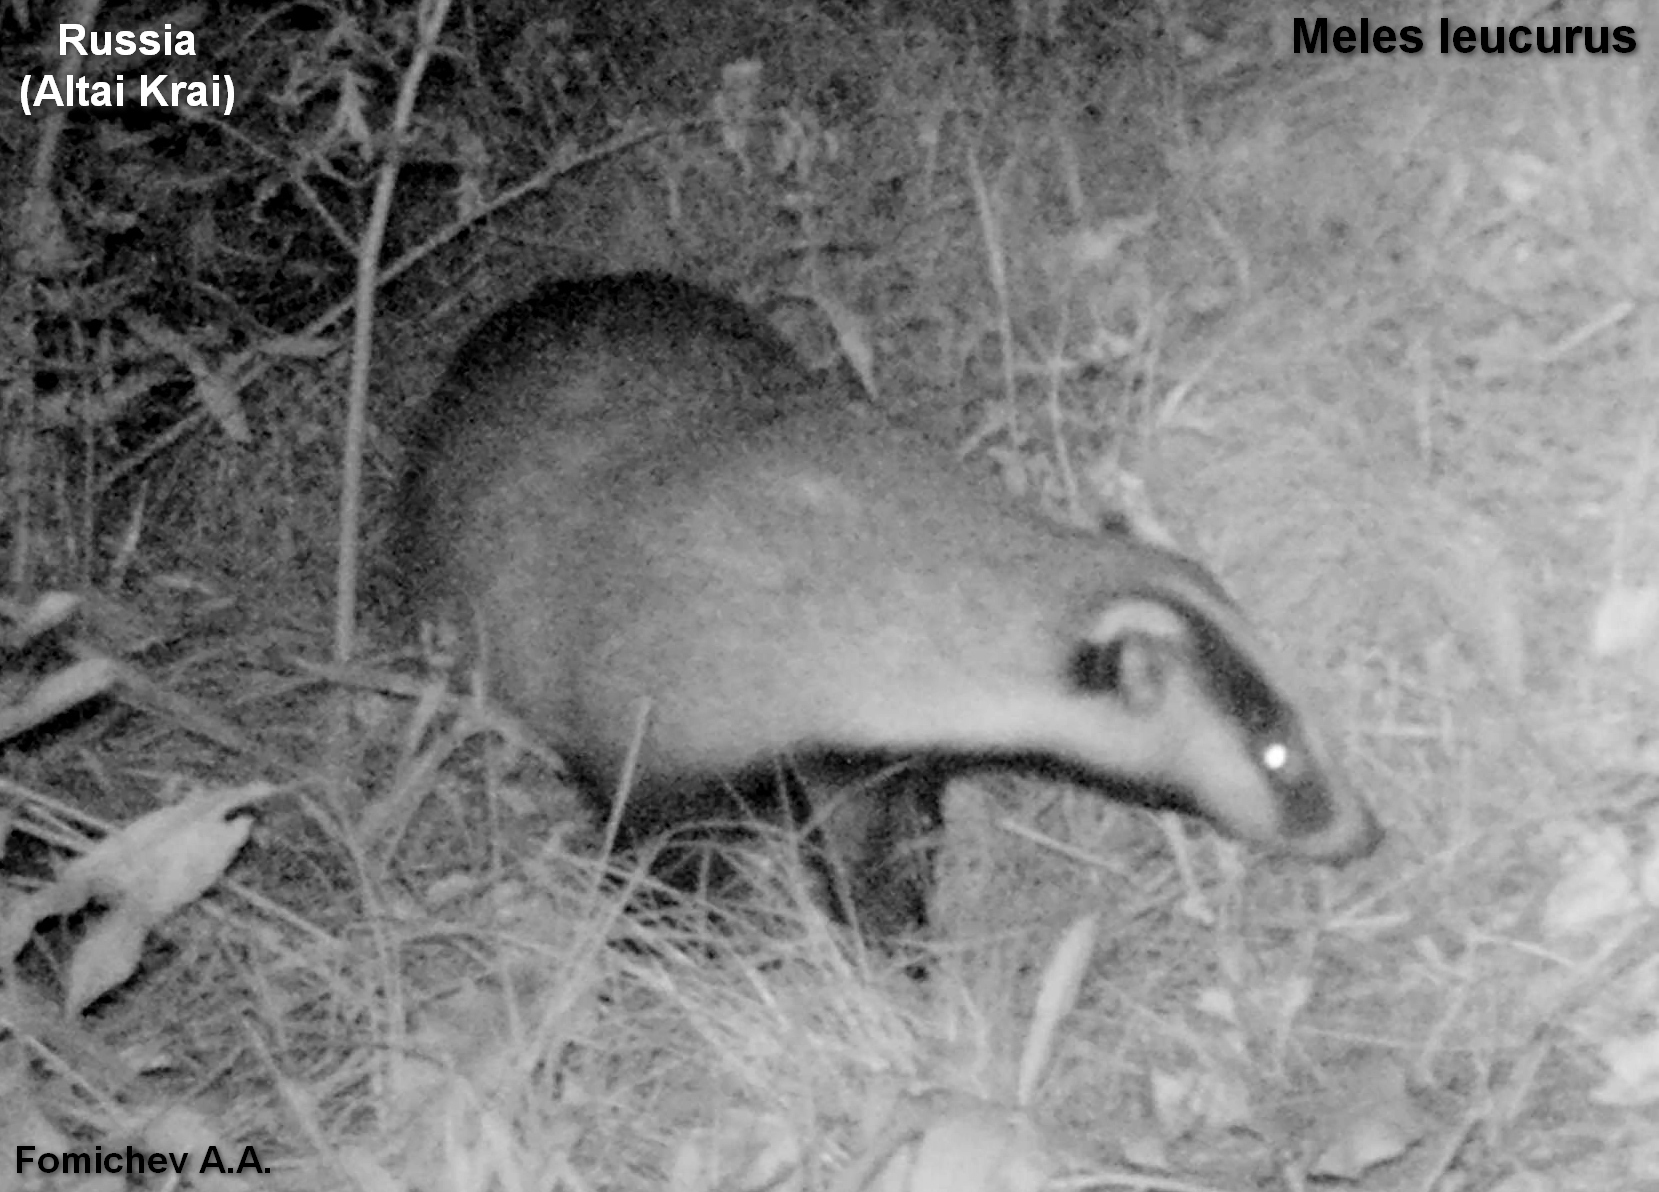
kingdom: Animalia
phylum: Chordata
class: Mammalia
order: Carnivora
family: Mustelidae
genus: Meles
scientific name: Meles leucurus
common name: Asian badger
